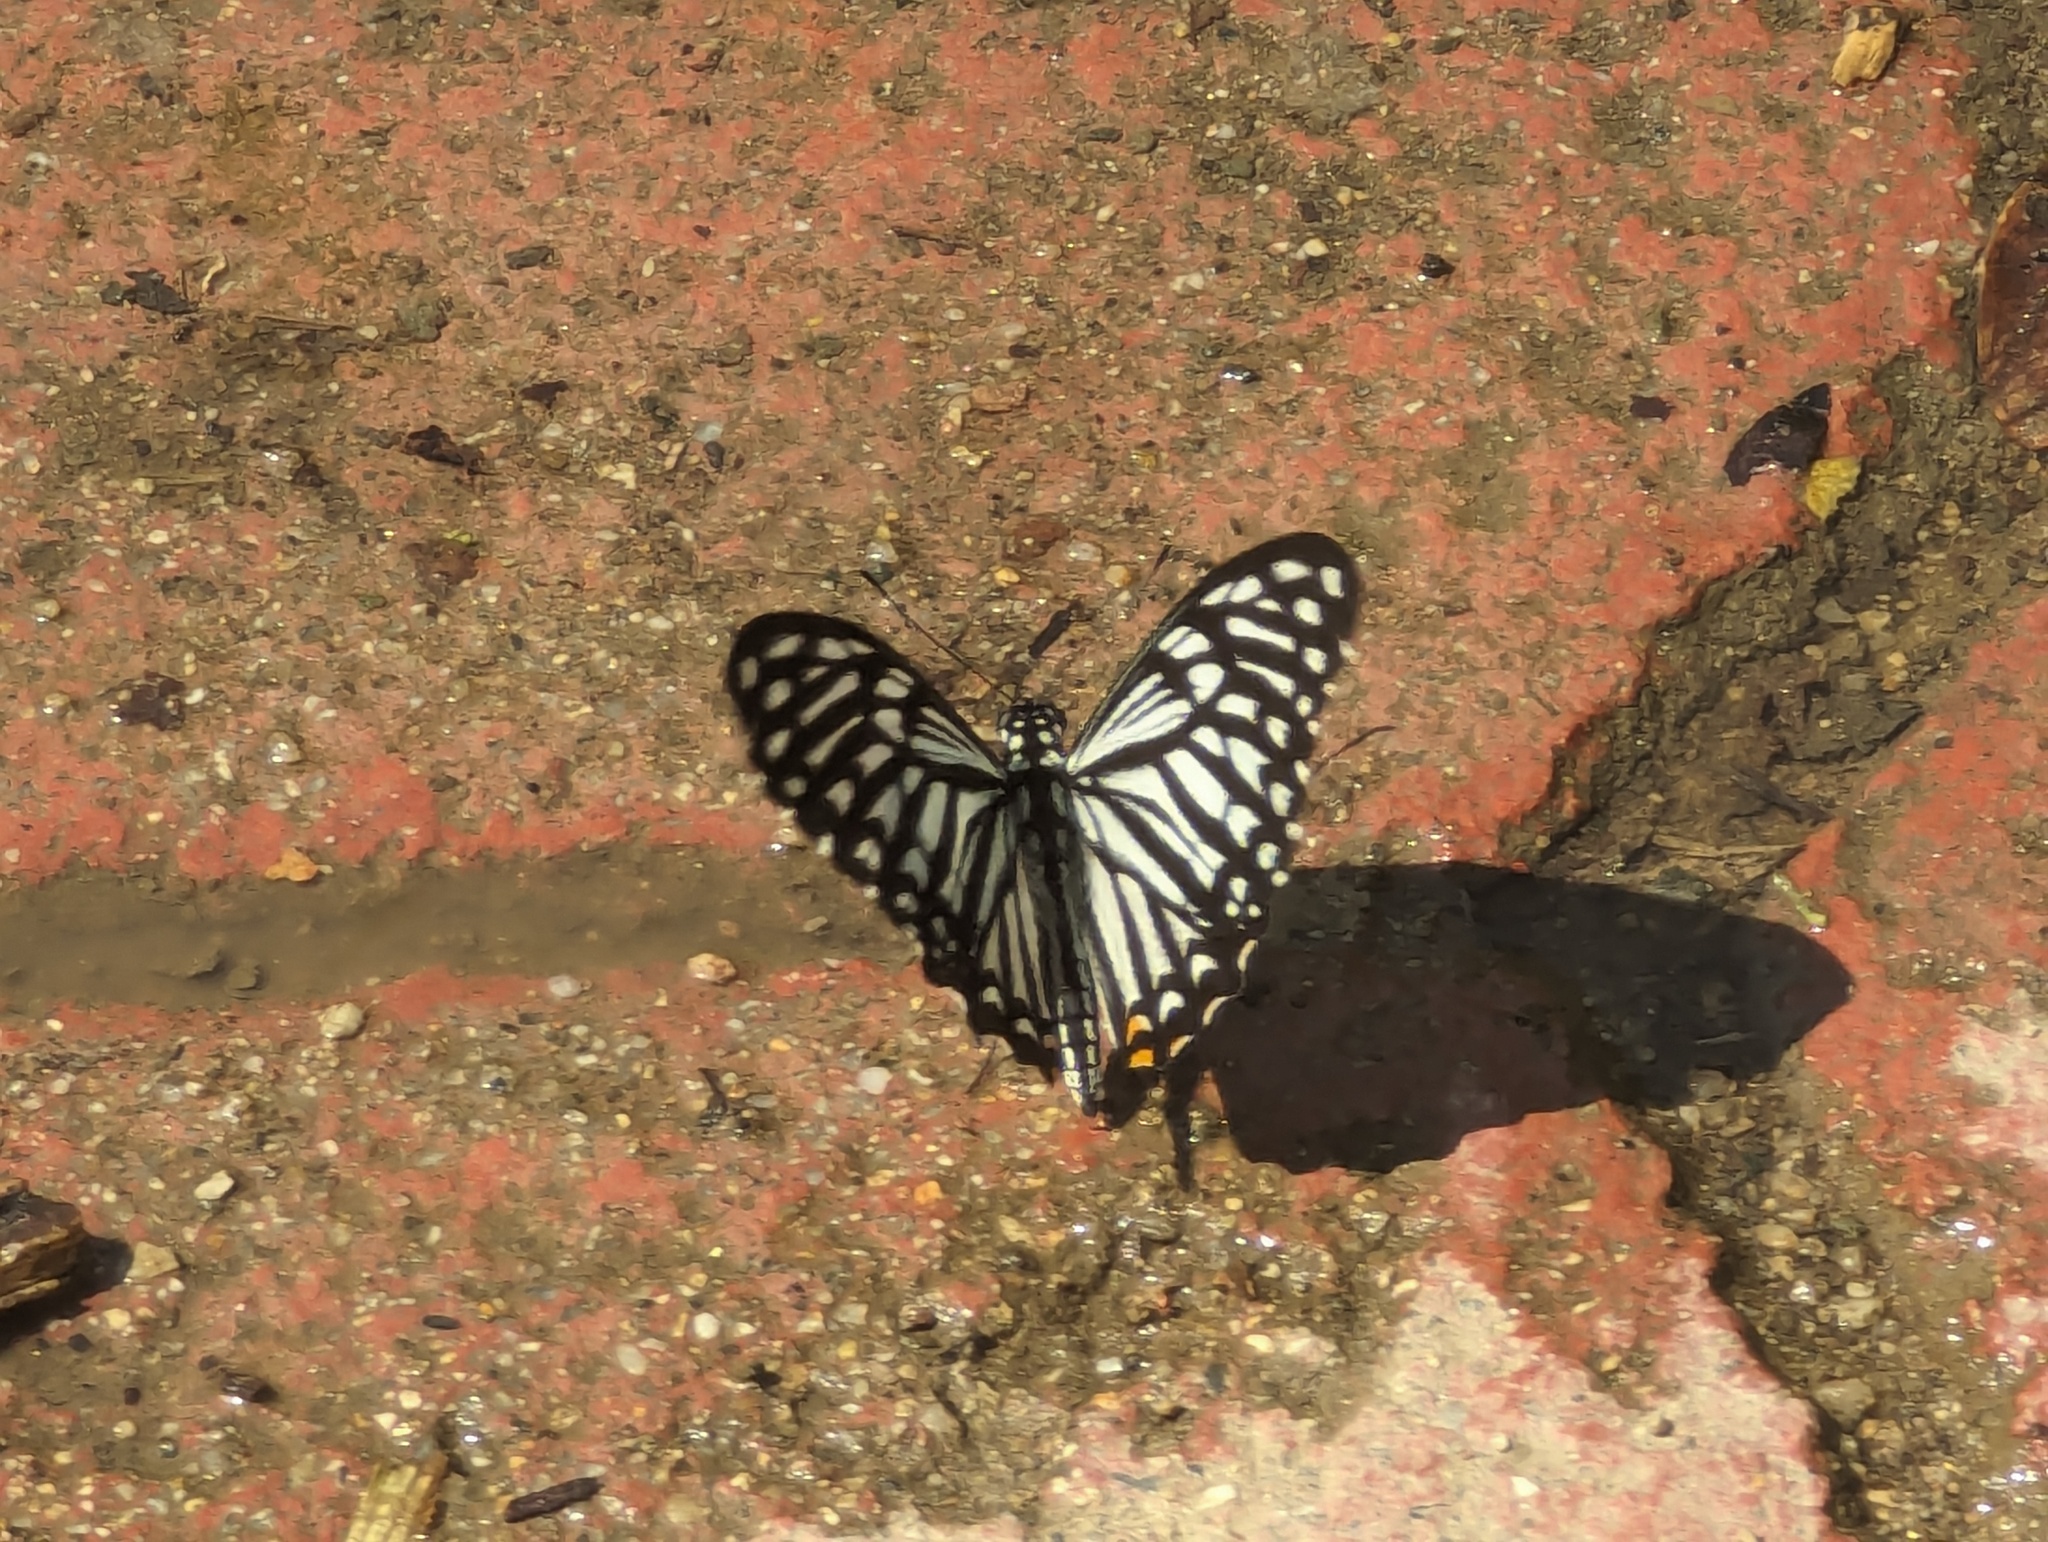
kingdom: Animalia
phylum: Arthropoda
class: Insecta
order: Lepidoptera
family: Papilionidae
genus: Chilasa
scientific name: Chilasa clytia
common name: Common mime
